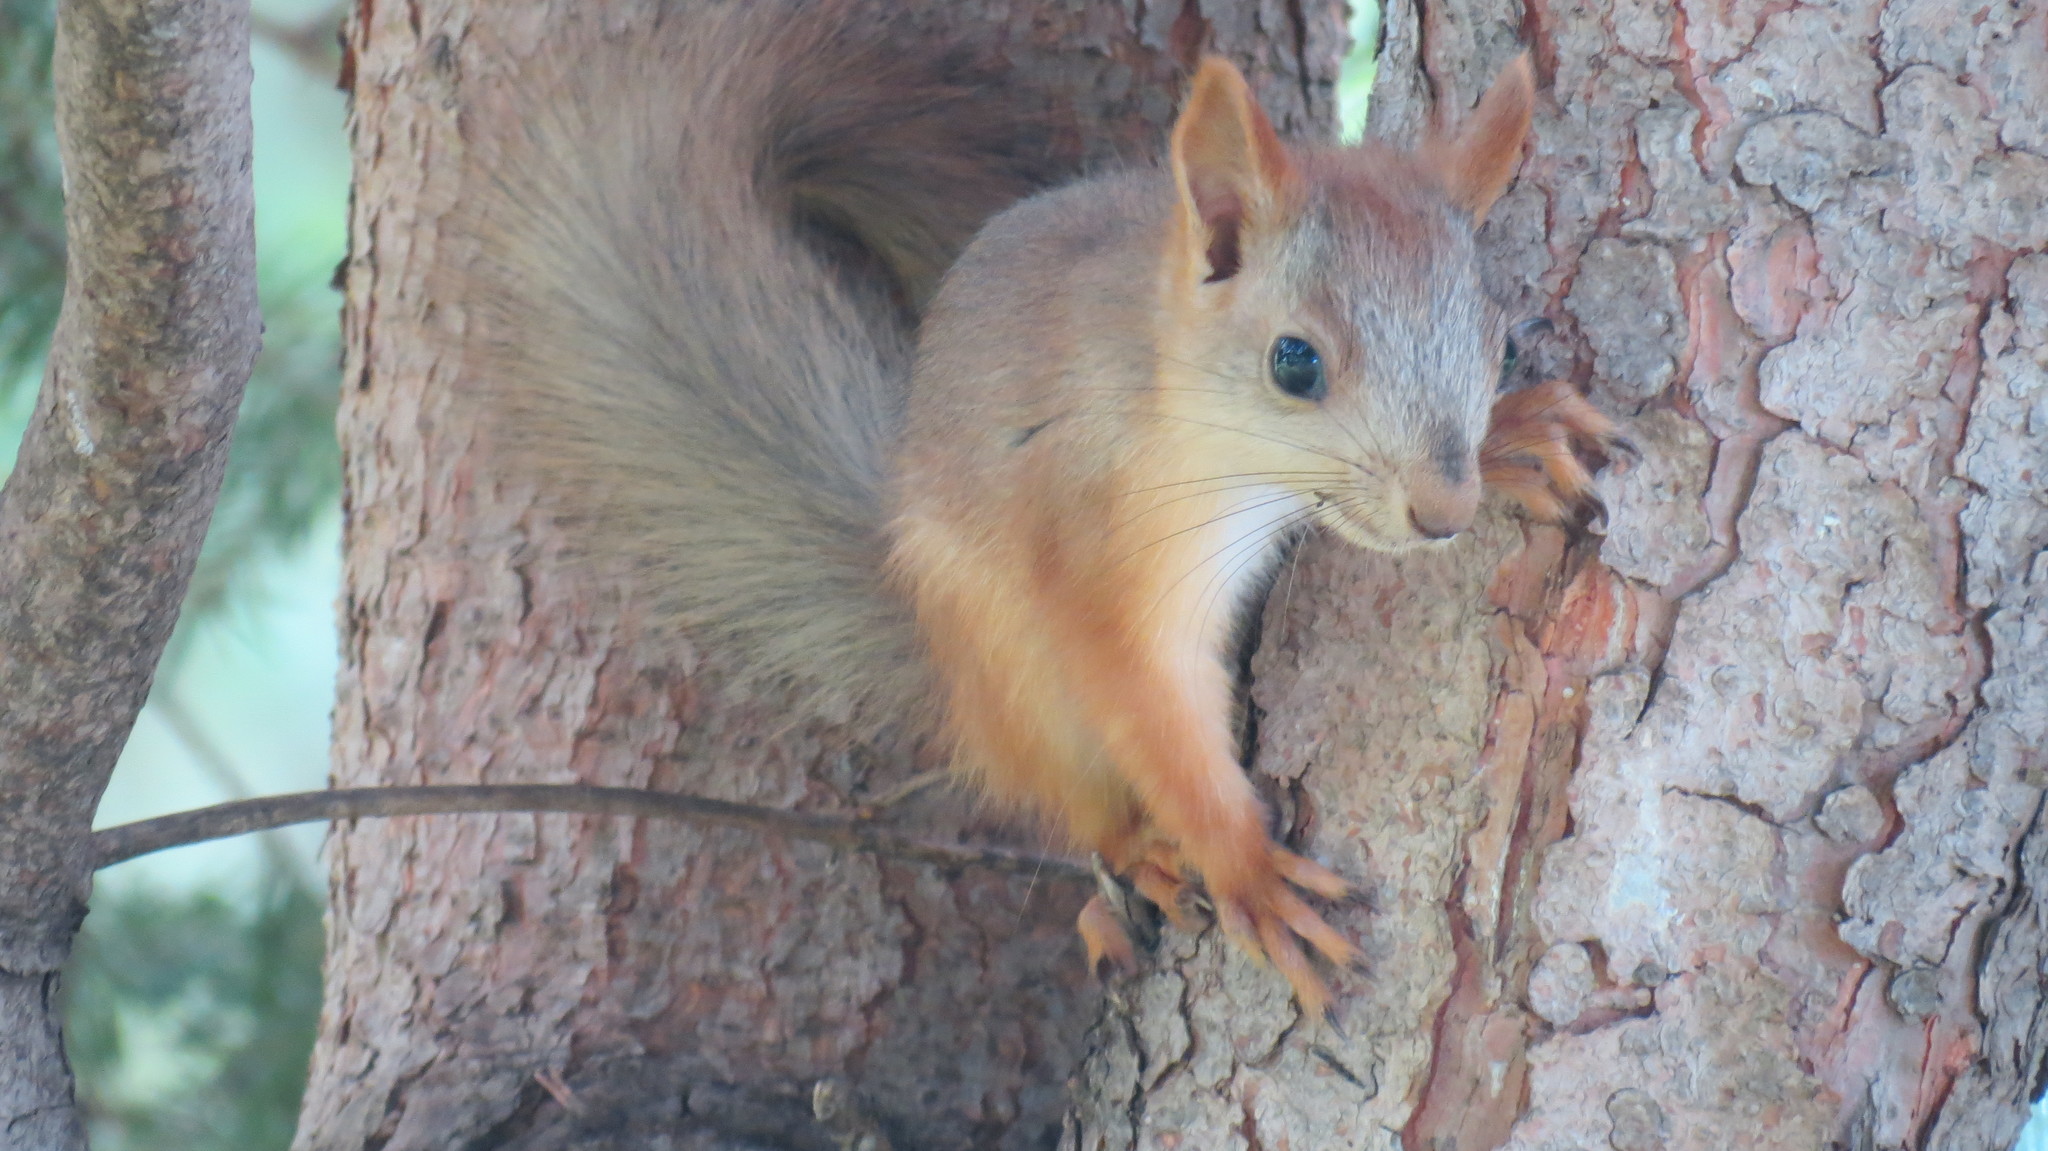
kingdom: Animalia
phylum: Chordata
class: Mammalia
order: Rodentia
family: Sciuridae
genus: Sciurus
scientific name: Sciurus vulgaris
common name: Eurasian red squirrel
